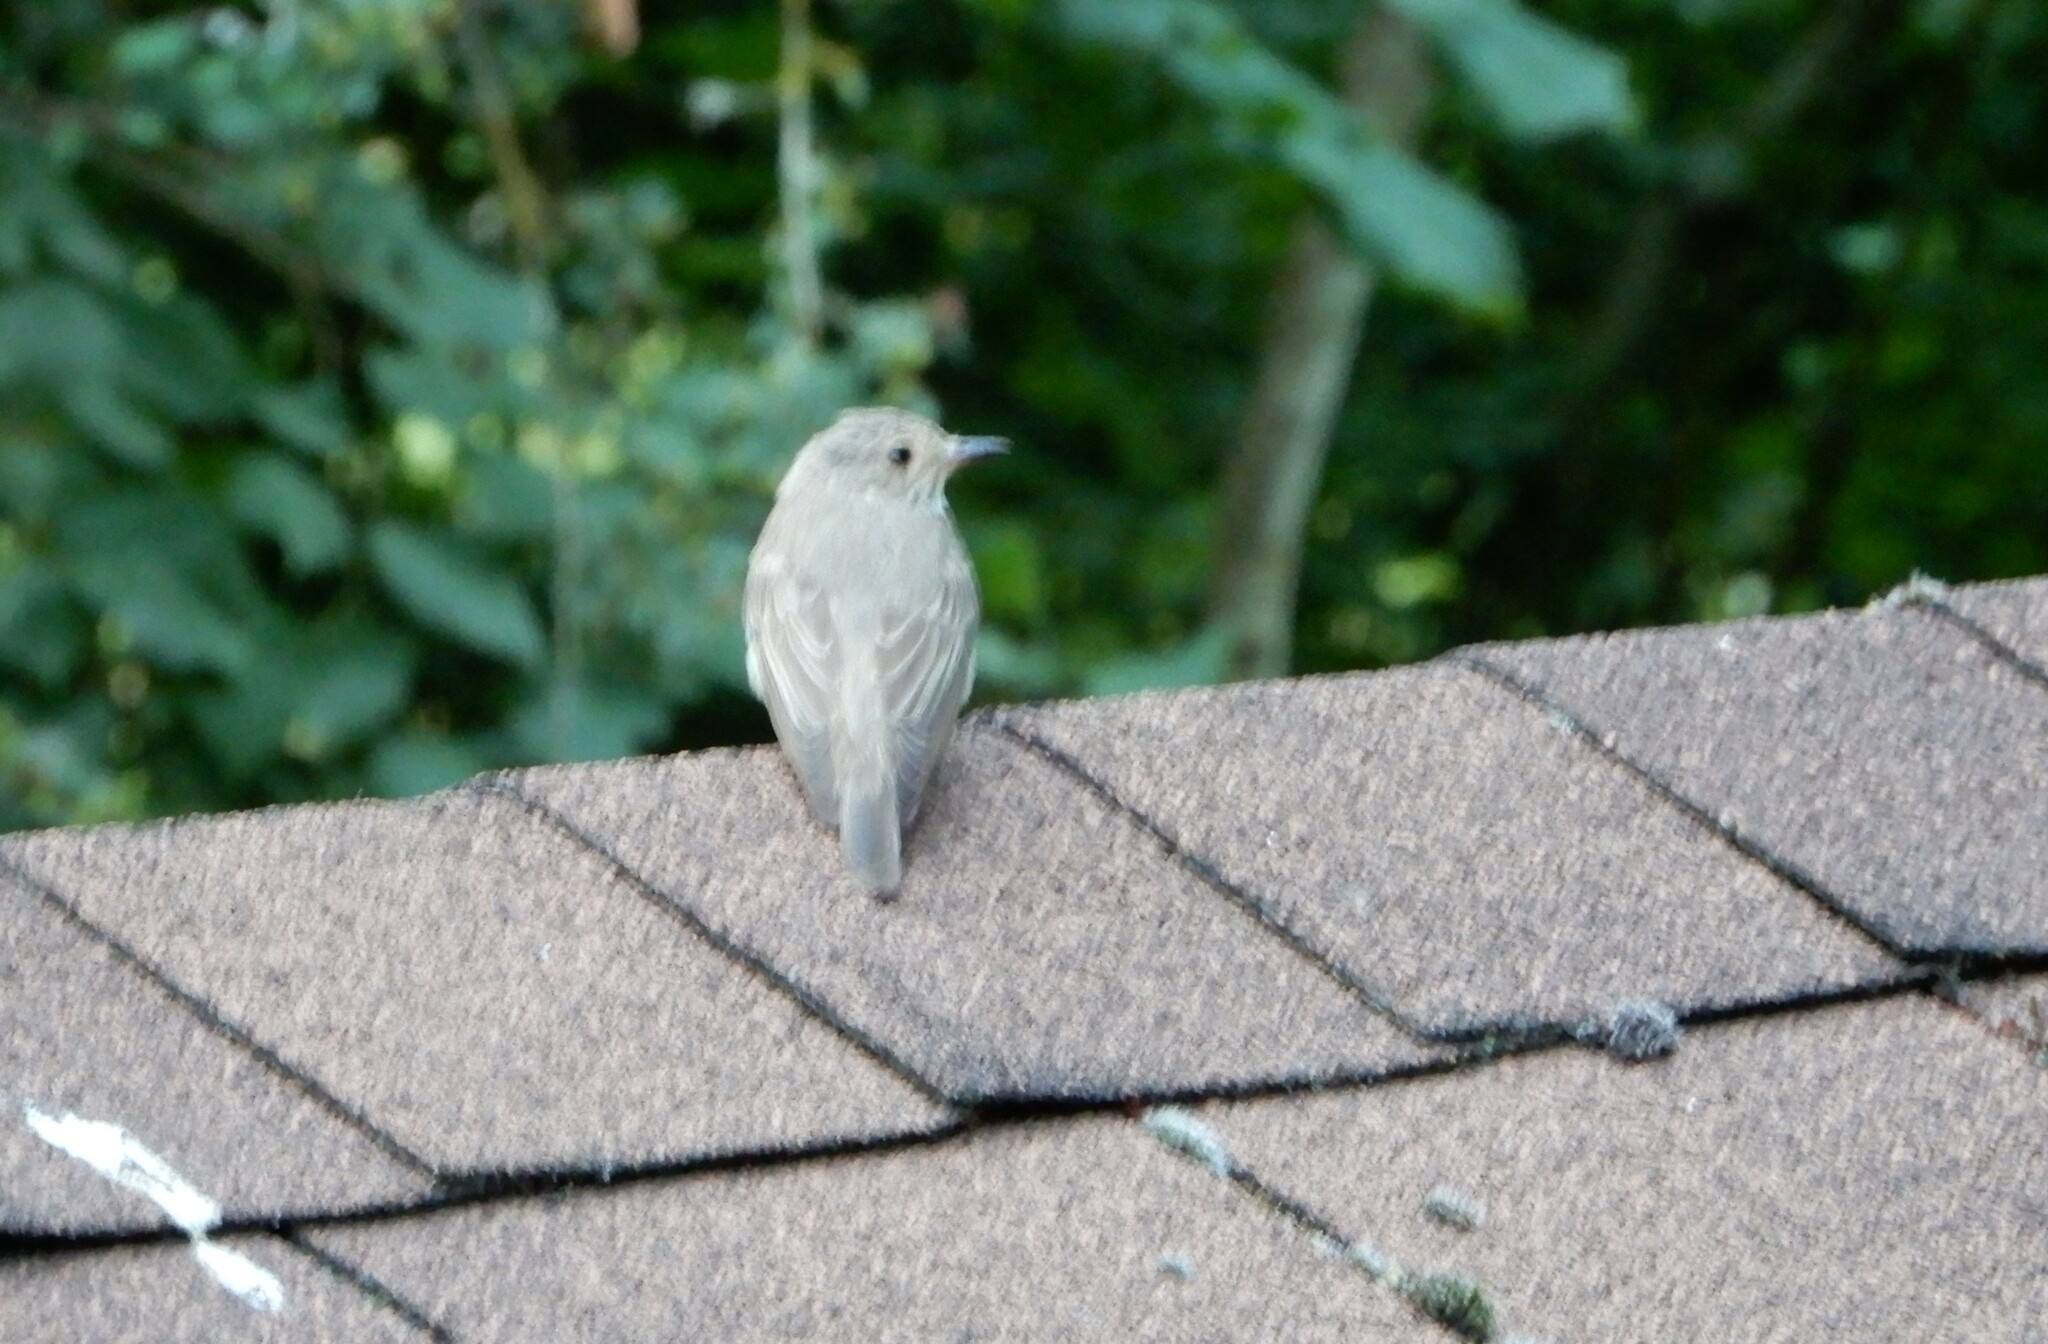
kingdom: Animalia
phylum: Chordata
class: Aves
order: Passeriformes
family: Muscicapidae
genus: Muscicapa
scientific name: Muscicapa striata
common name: Spotted flycatcher
